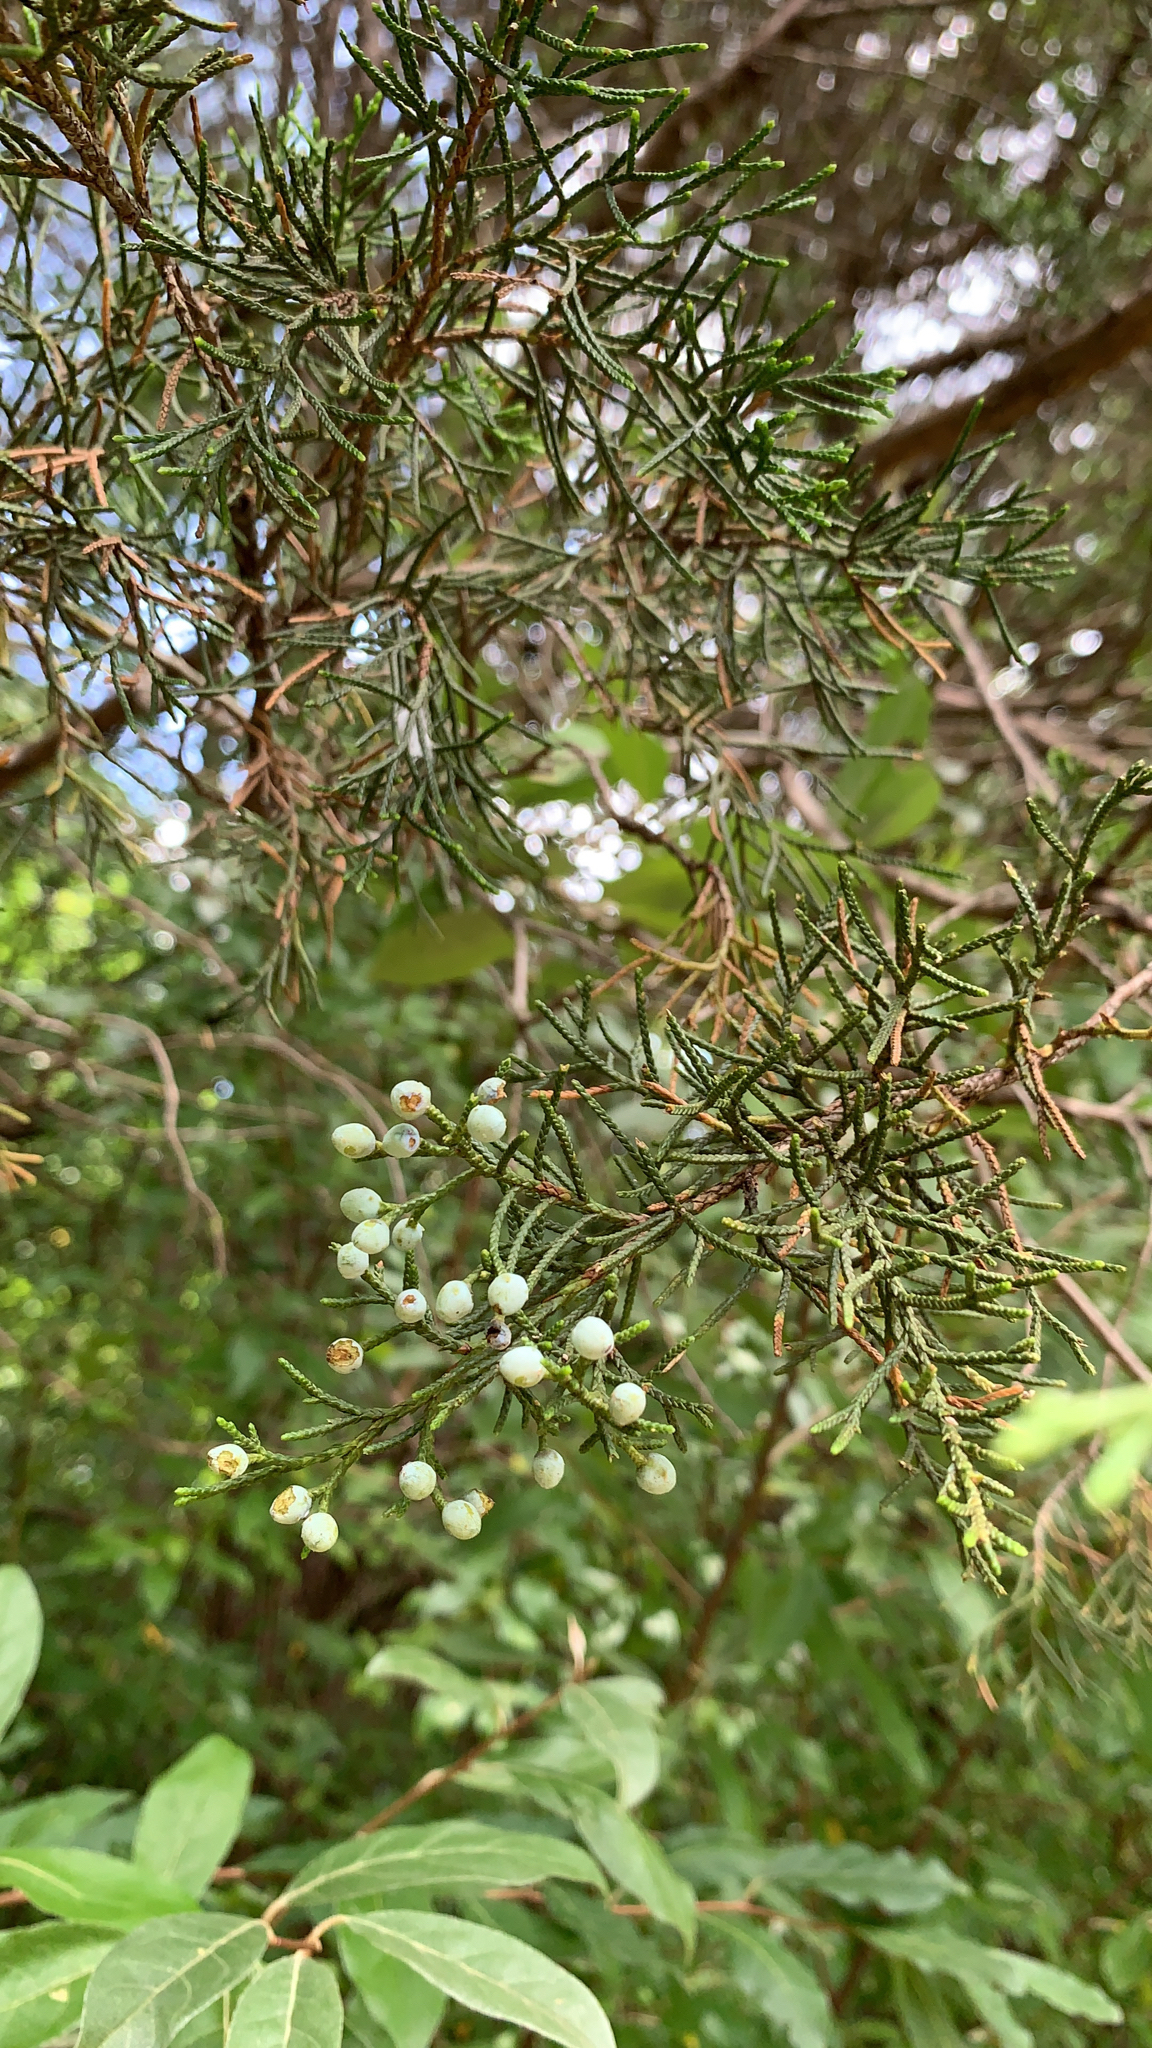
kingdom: Plantae
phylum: Tracheophyta
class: Pinopsida
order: Pinales
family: Cupressaceae
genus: Juniperus
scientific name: Juniperus virginiana
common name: Red juniper
